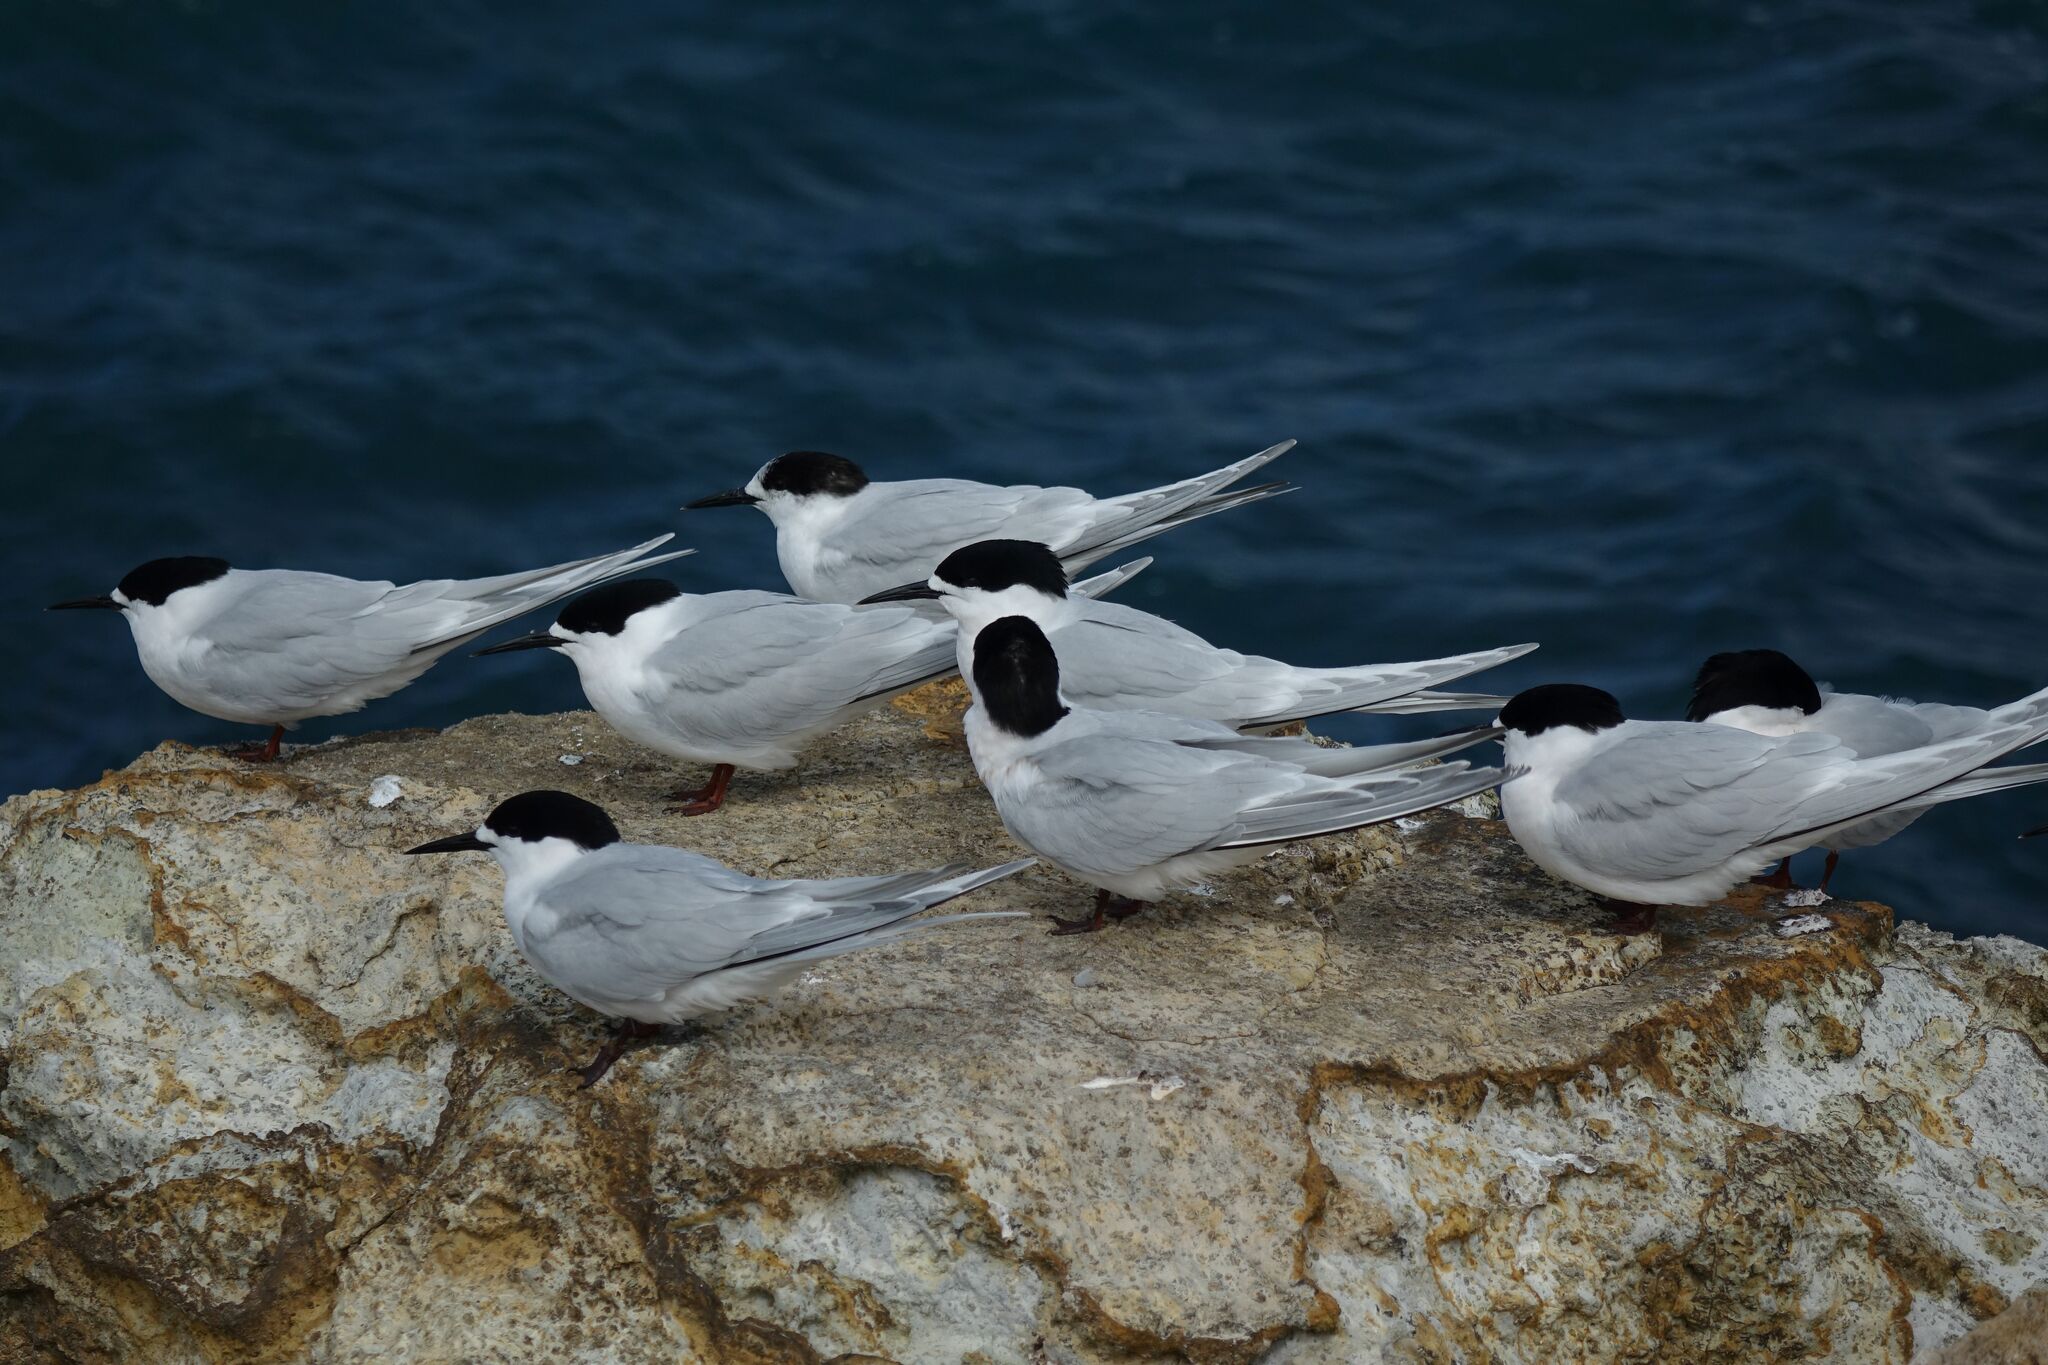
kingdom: Animalia
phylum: Chordata
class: Aves
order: Charadriiformes
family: Laridae
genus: Sterna
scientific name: Sterna striata
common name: White-fronted tern
